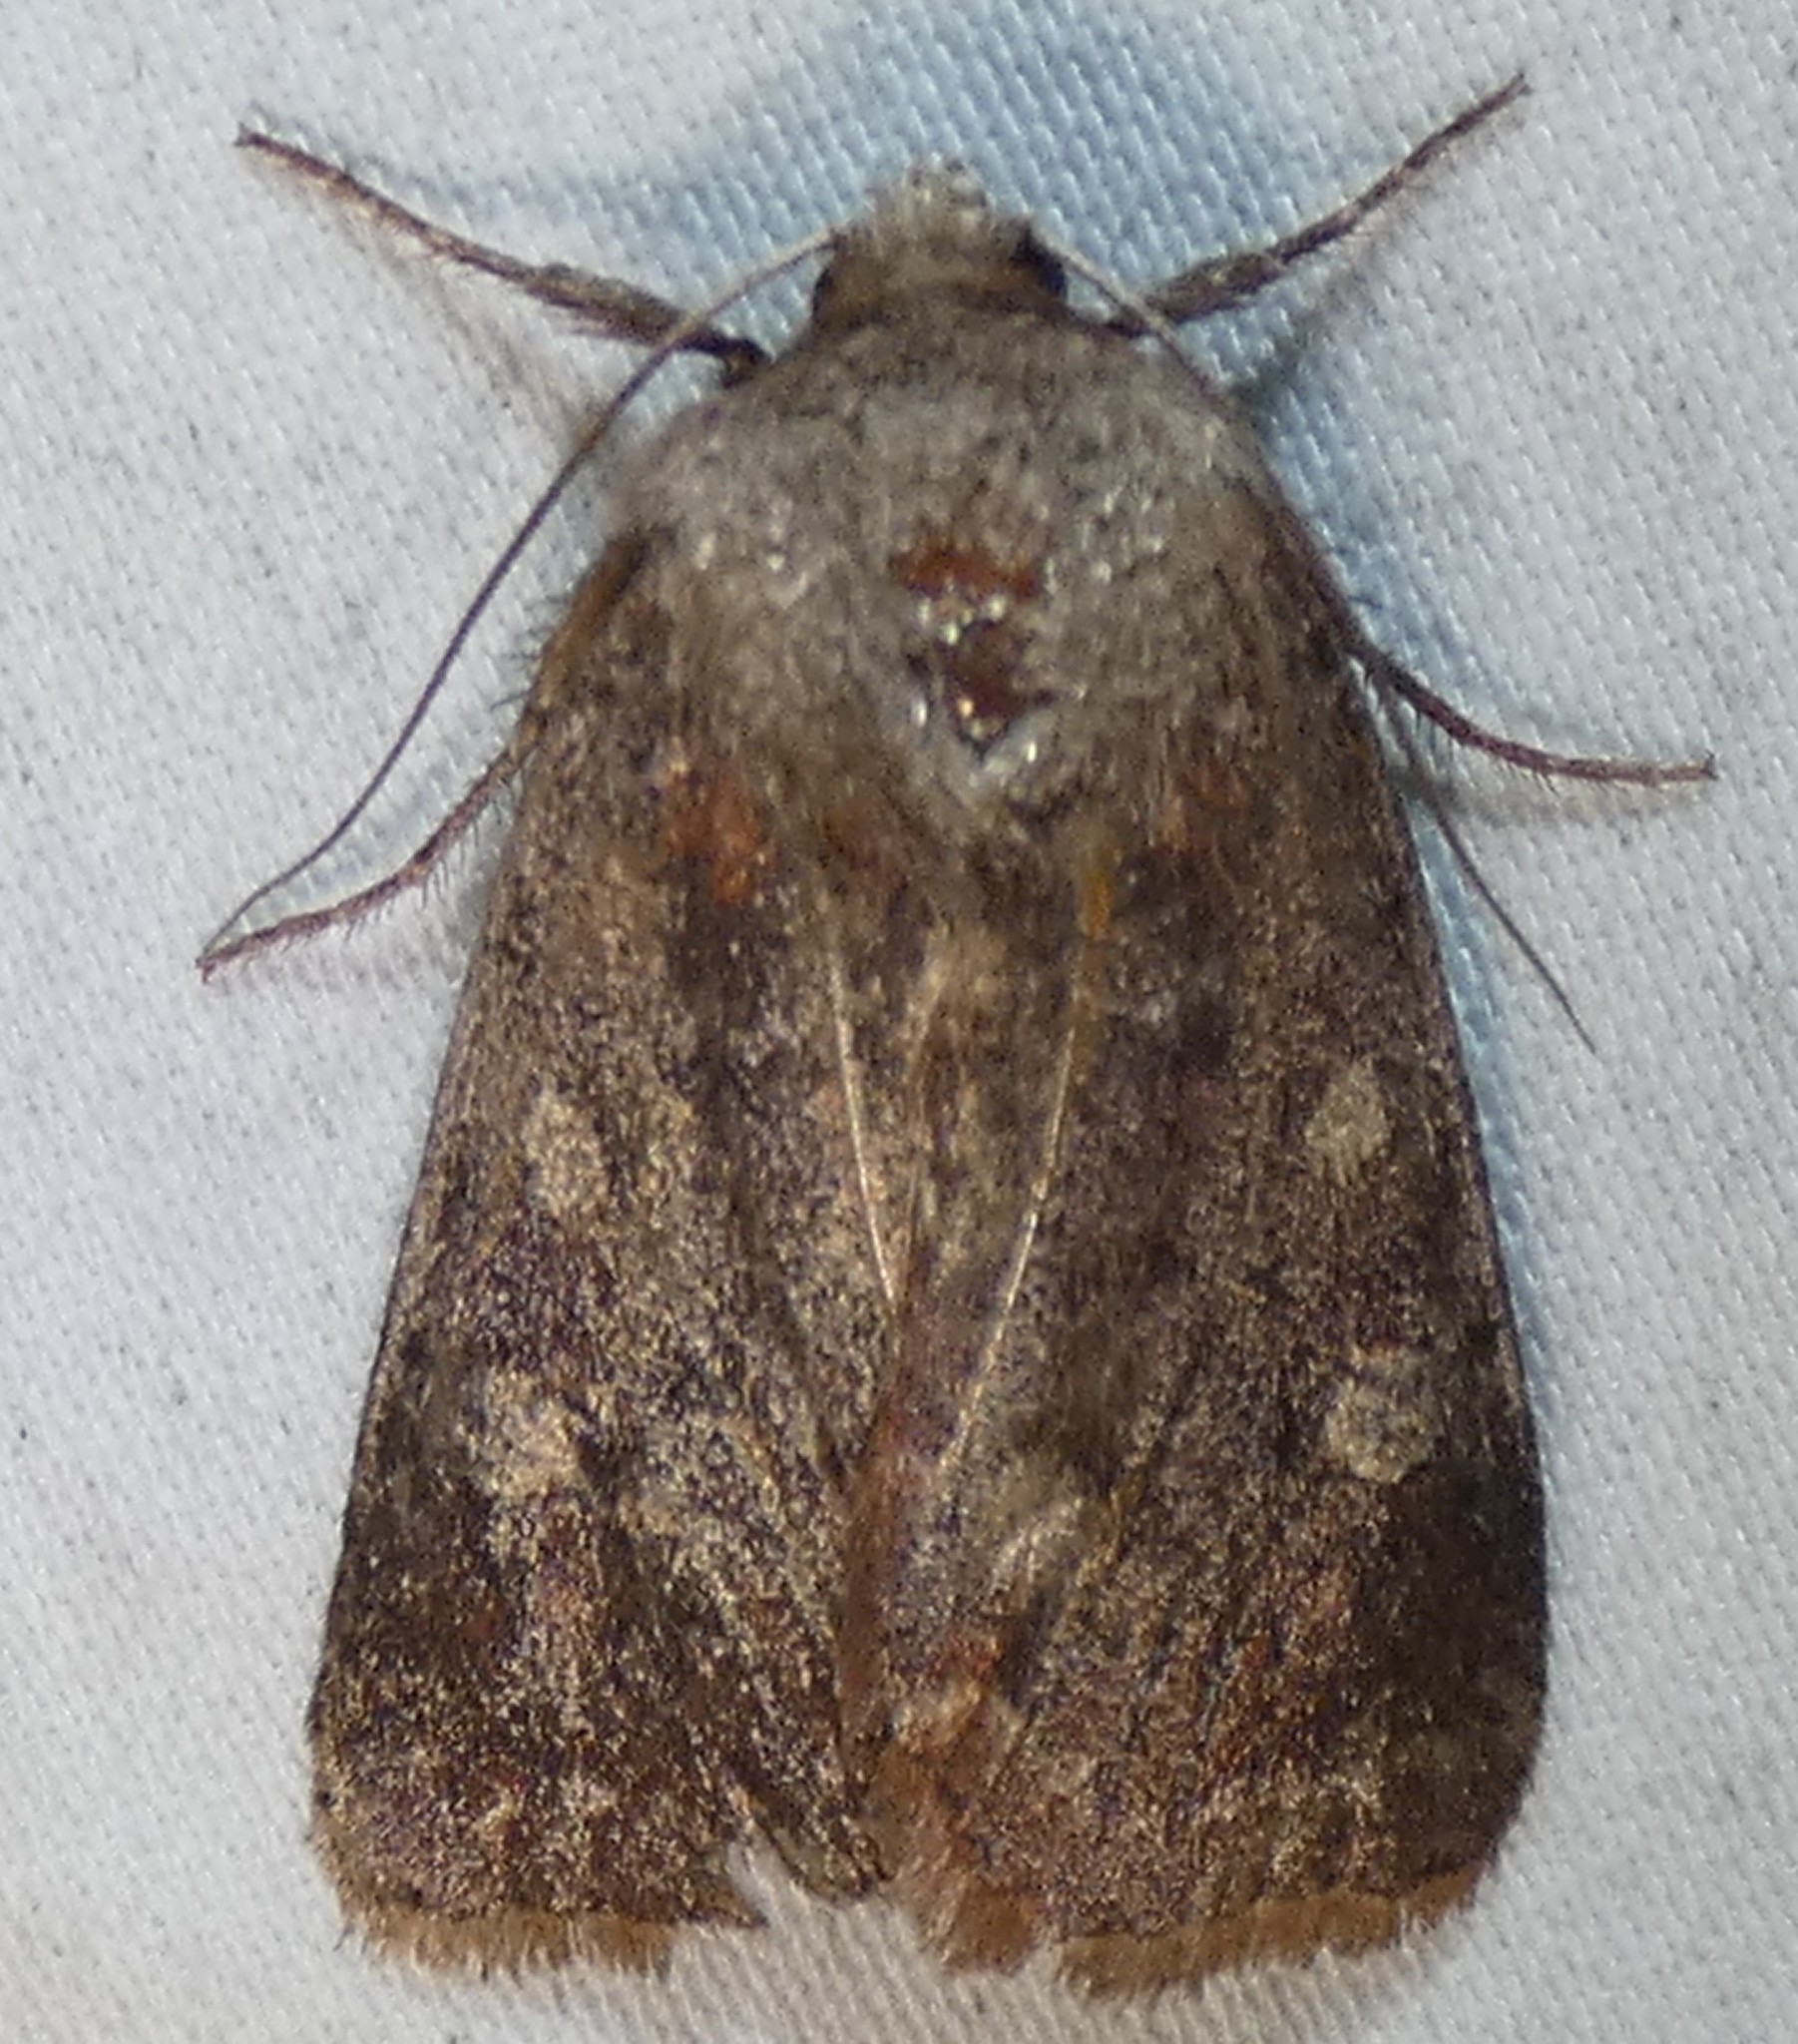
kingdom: Animalia
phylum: Arthropoda
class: Insecta
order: Lepidoptera
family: Noctuidae
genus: Cerastis
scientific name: Cerastis tenebrifera
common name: Reddish speckled dart
